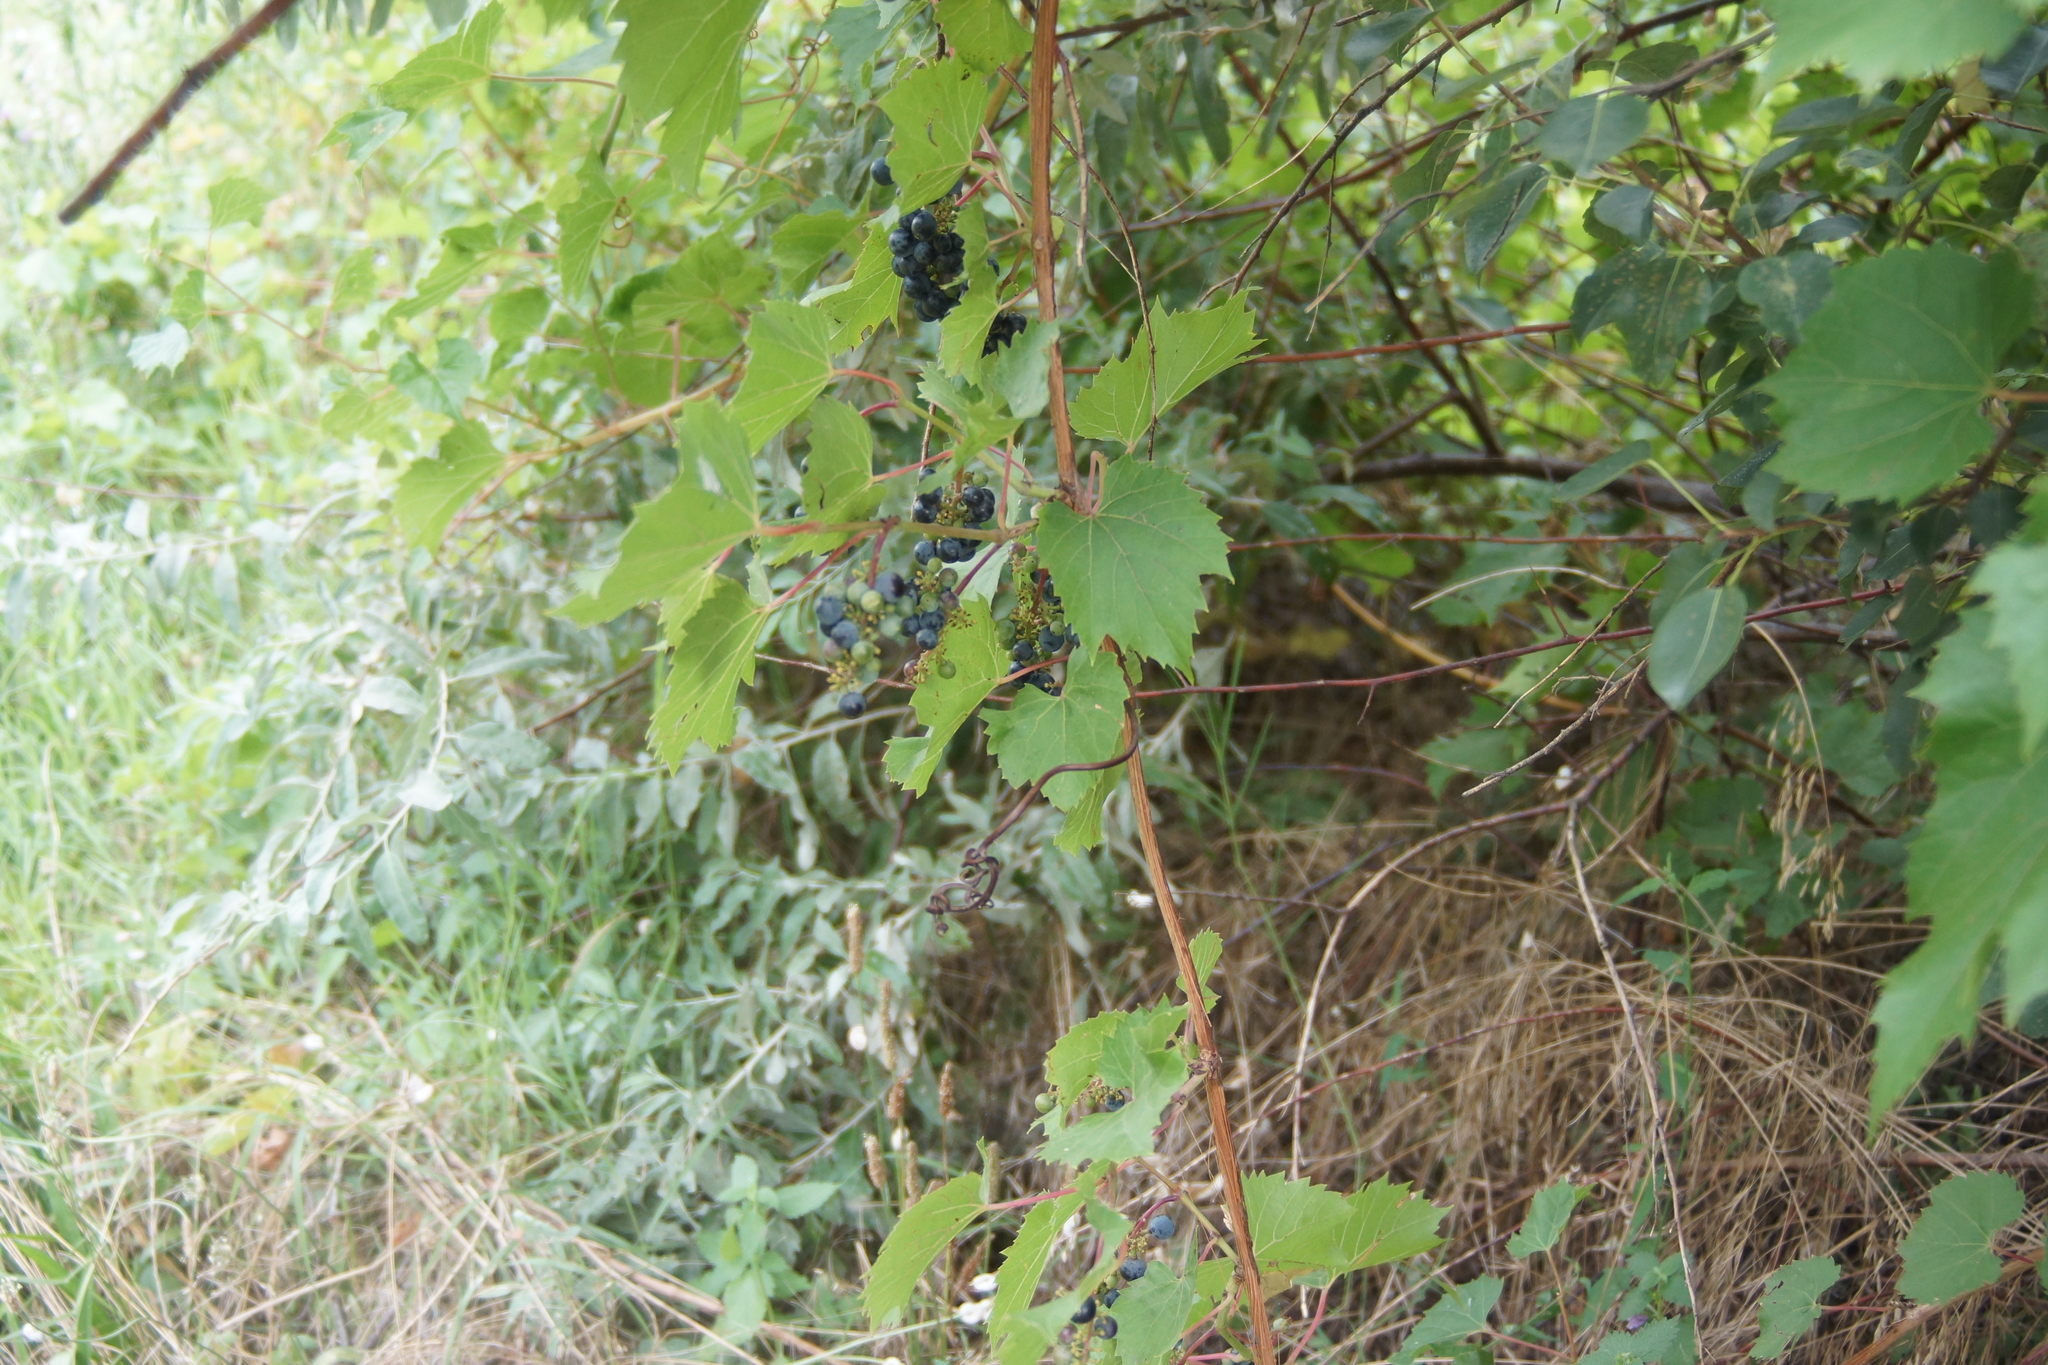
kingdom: Plantae
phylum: Tracheophyta
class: Magnoliopsida
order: Vitales
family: Vitaceae
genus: Vitis
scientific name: Vitis vulpina
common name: Frost grape
